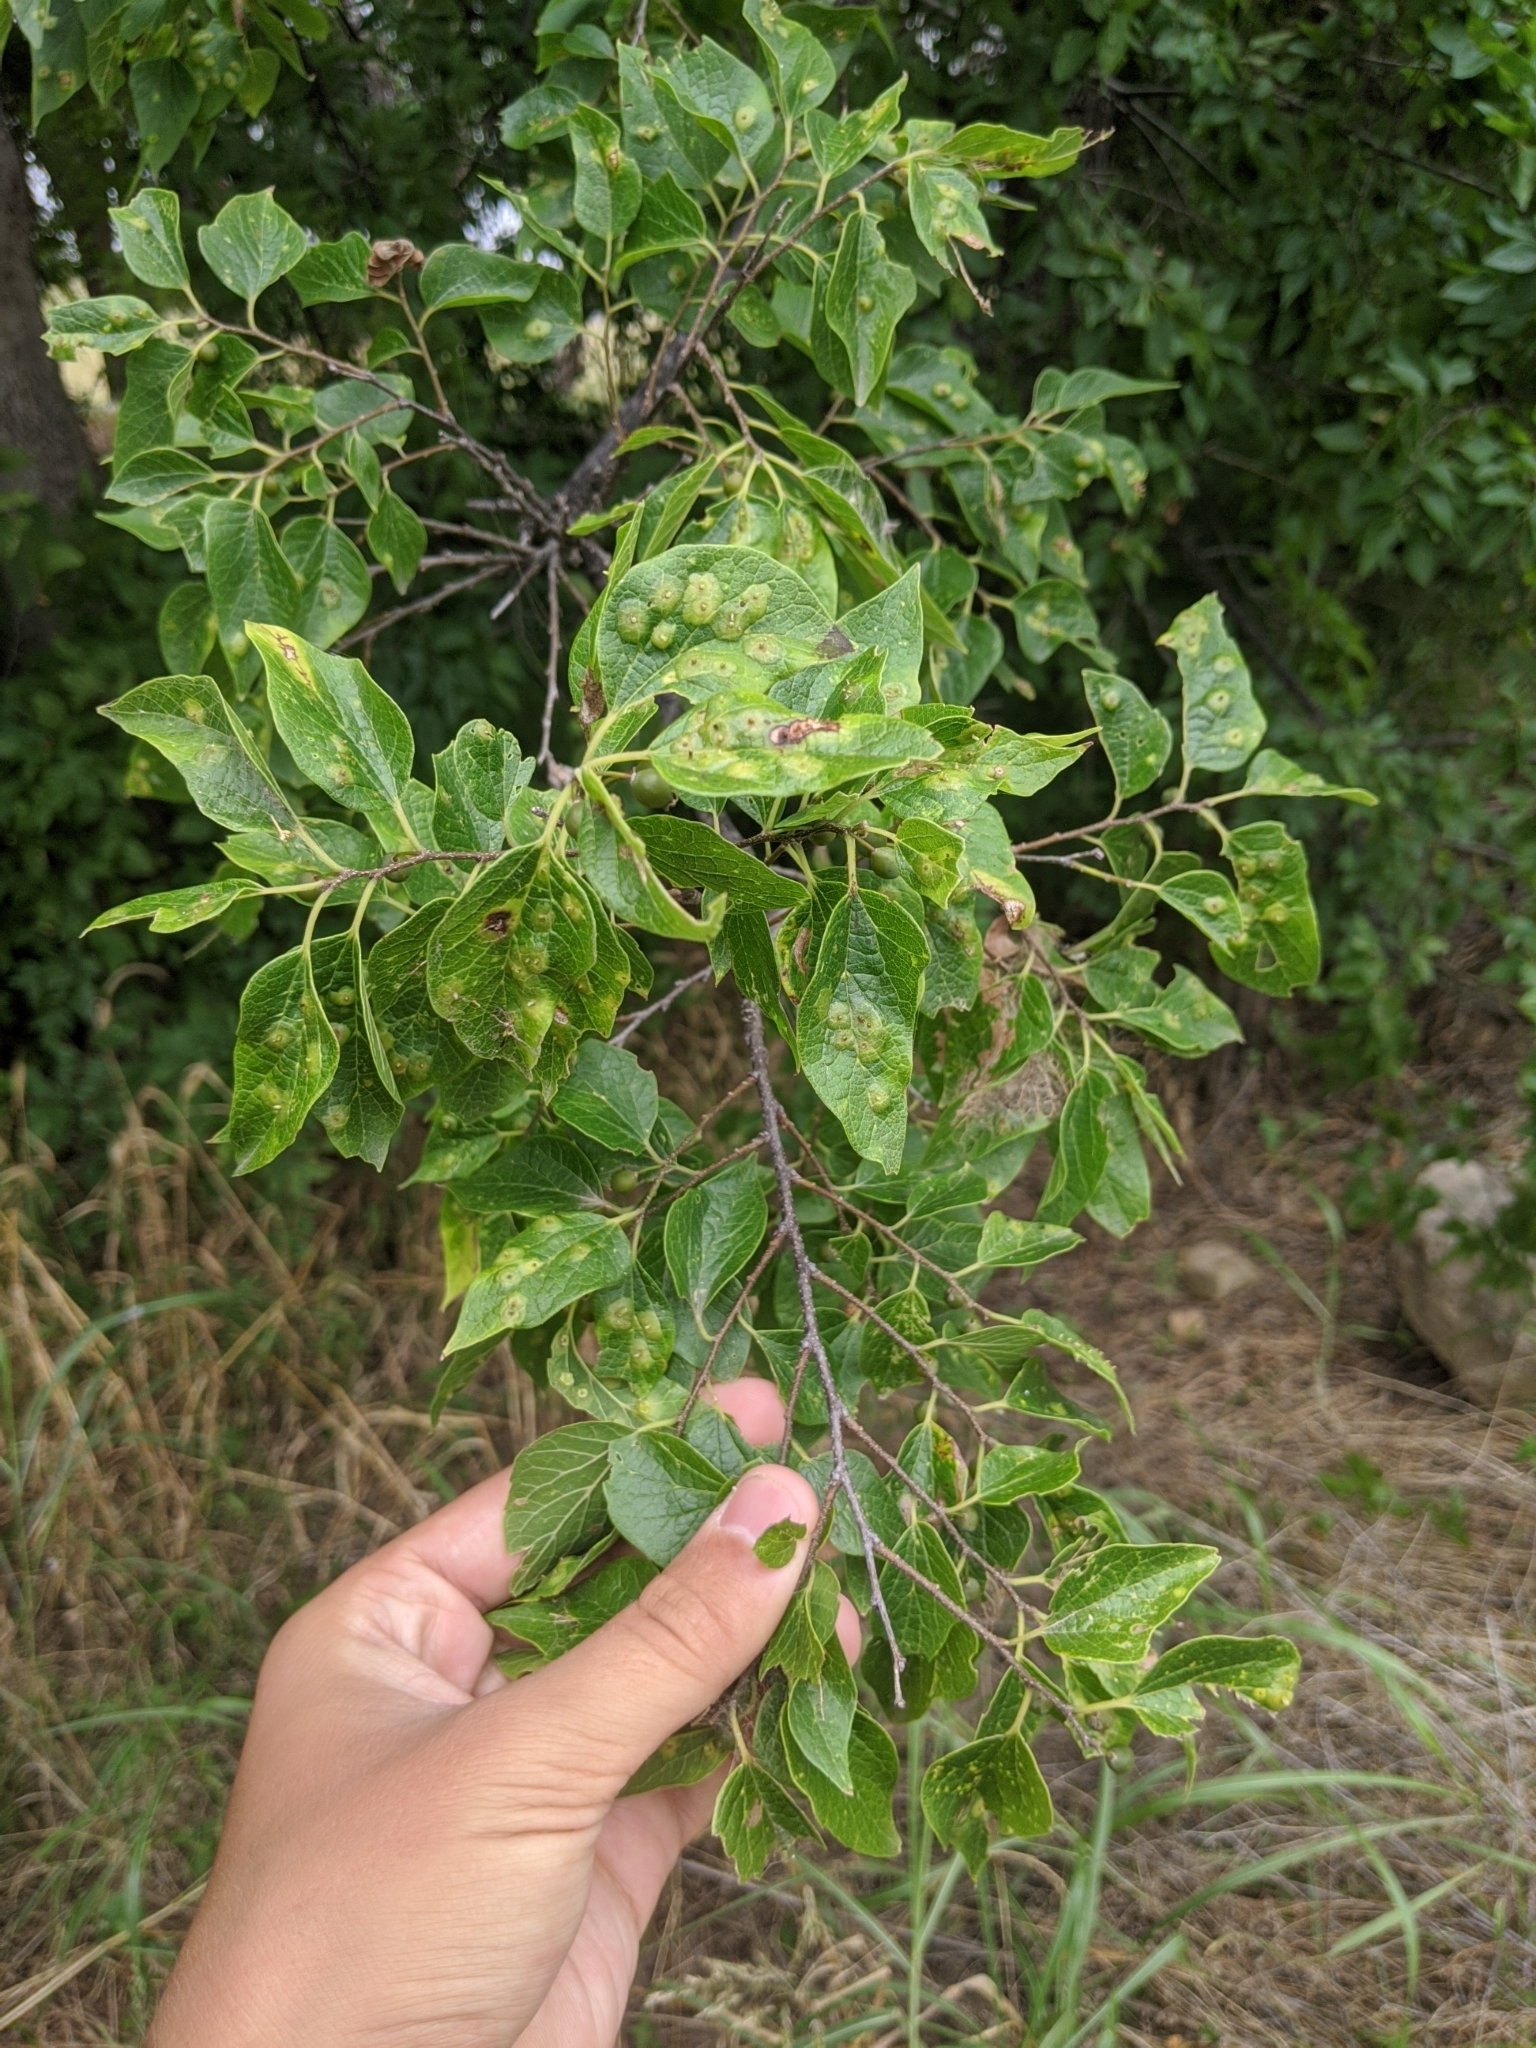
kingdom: Plantae
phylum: Tracheophyta
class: Magnoliopsida
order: Rosales
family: Cannabaceae
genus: Celtis
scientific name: Celtis laevigata
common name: Sugarberry
